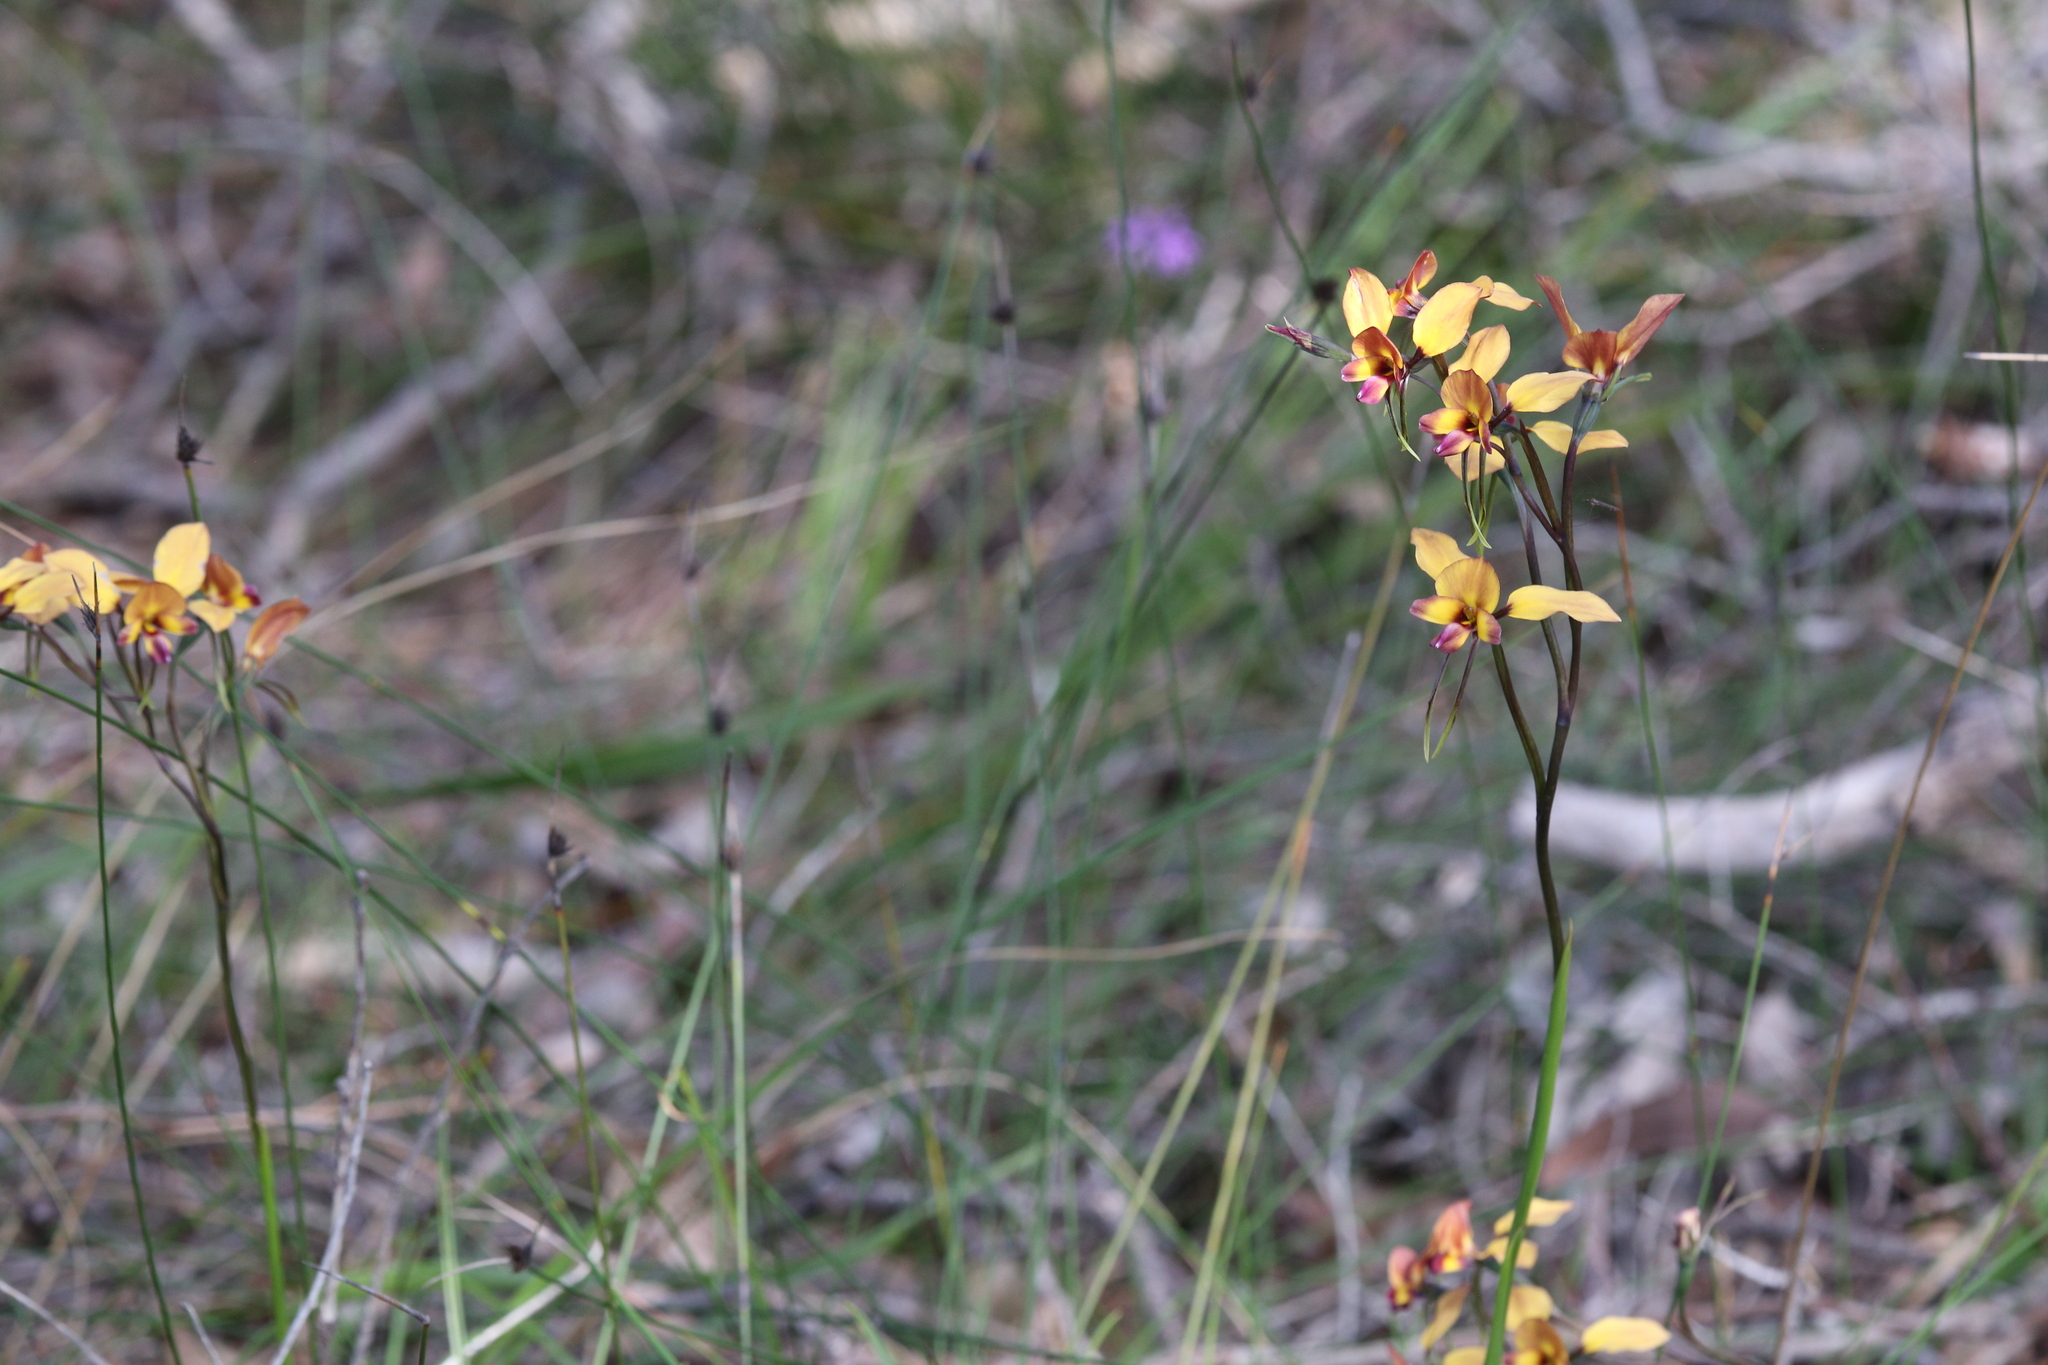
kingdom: Plantae
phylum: Tracheophyta
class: Liliopsida
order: Asparagales
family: Orchidaceae
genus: Diuris
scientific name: Diuris magnifica
